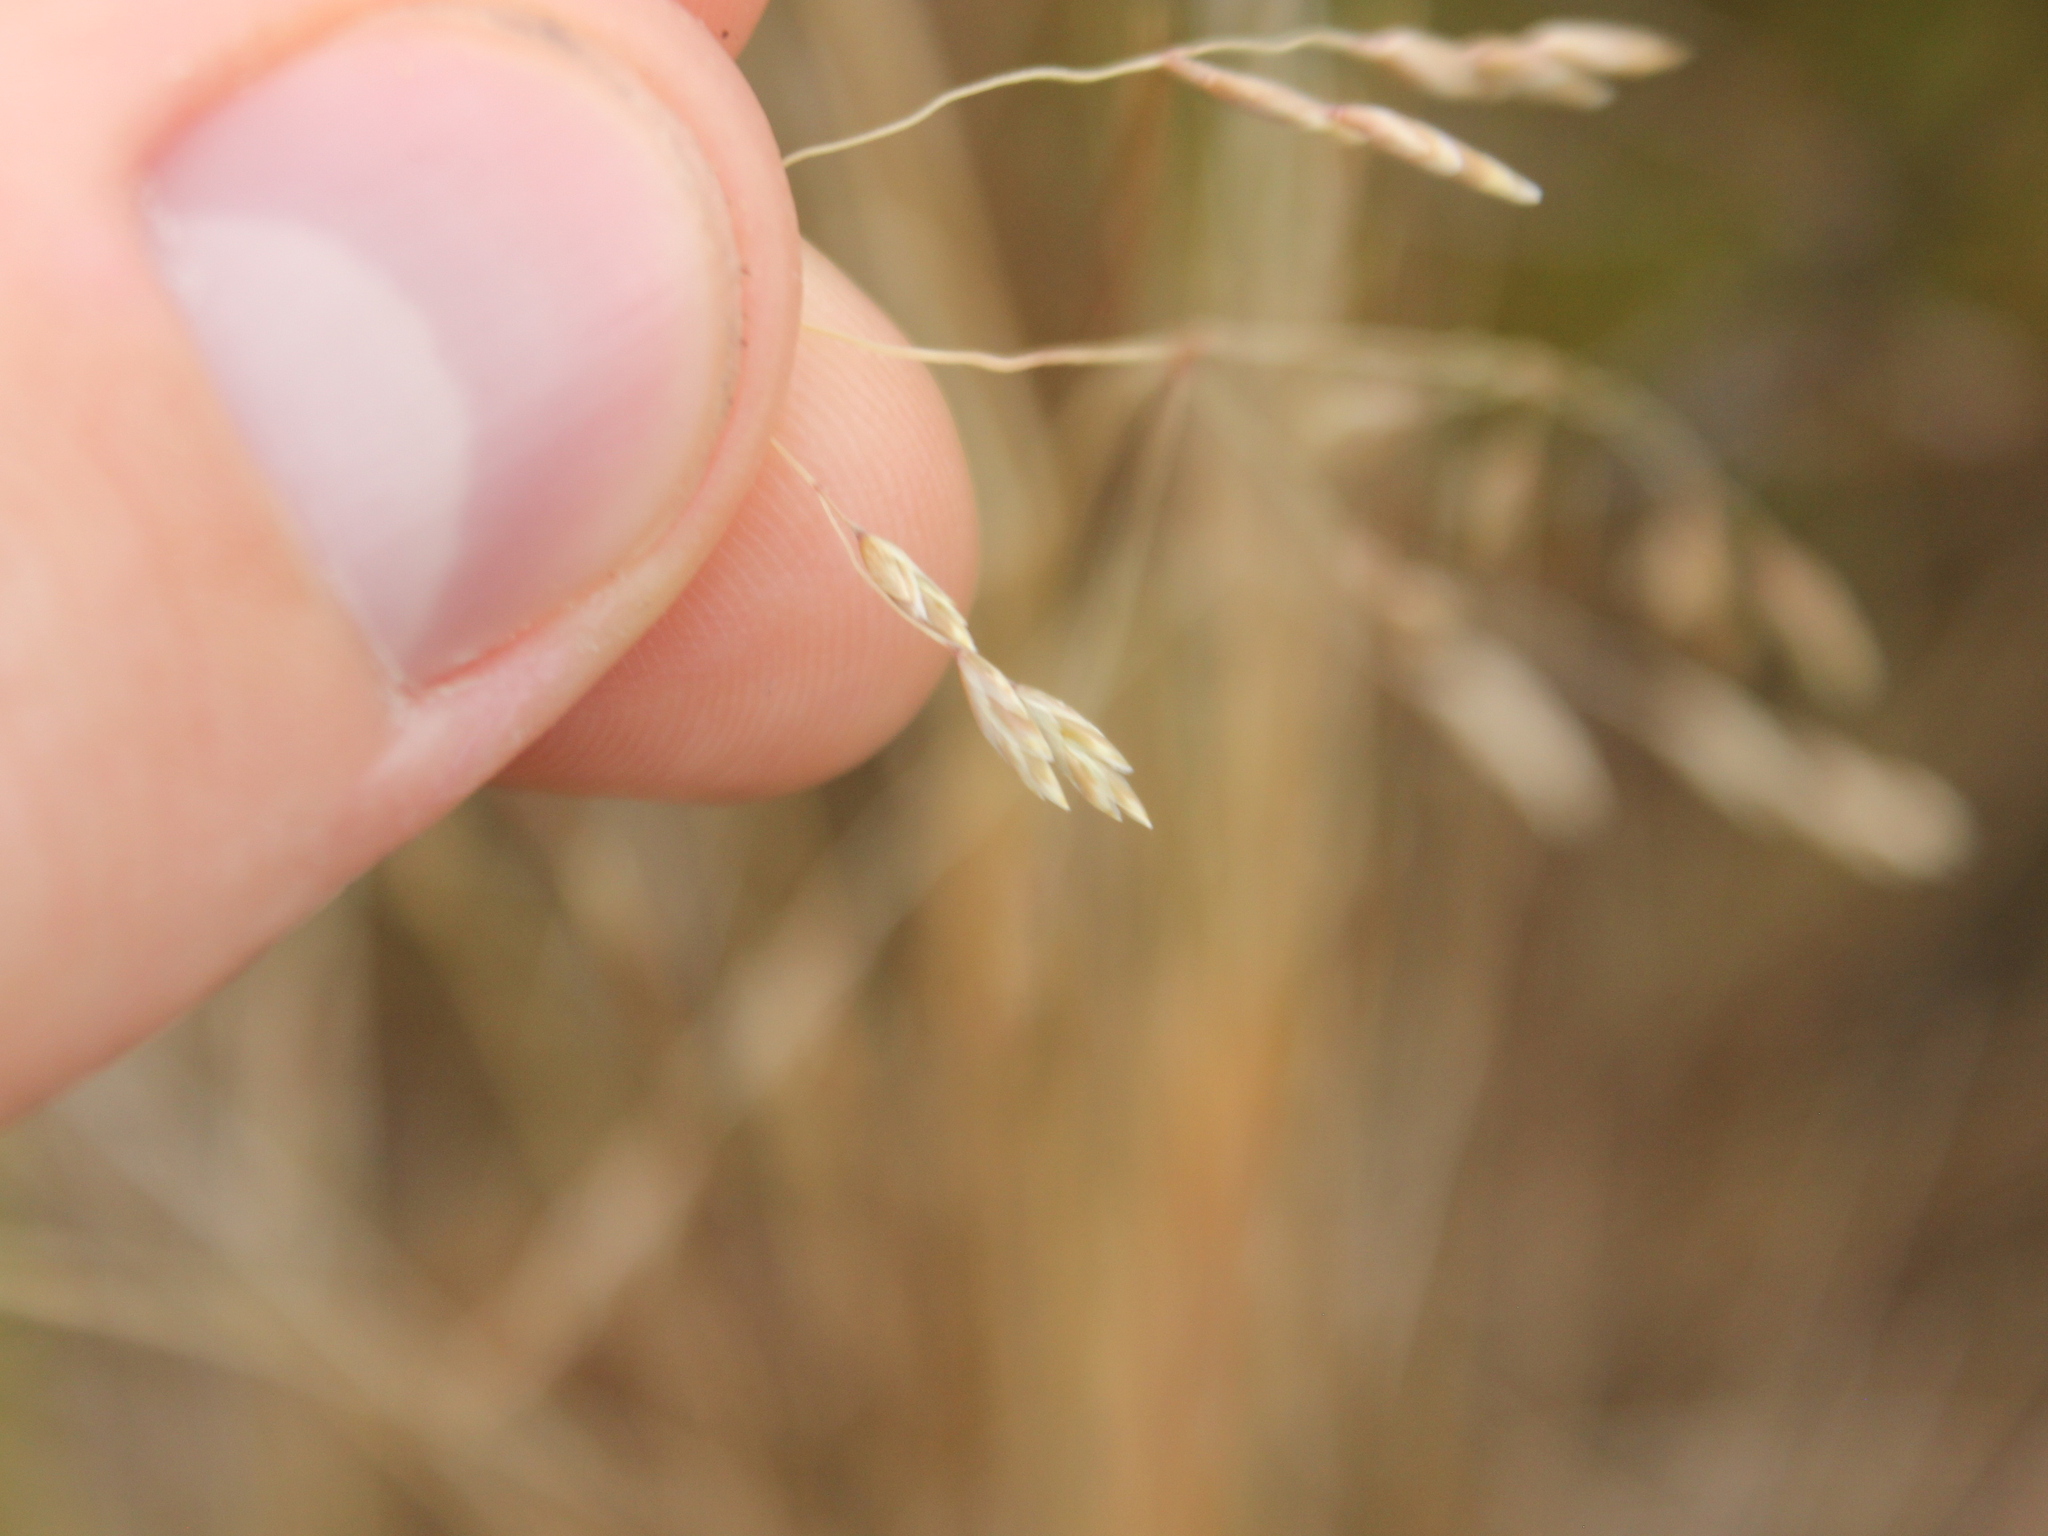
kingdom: Plantae
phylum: Tracheophyta
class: Liliopsida
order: Poales
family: Poaceae
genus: Poa
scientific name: Poa cita
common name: Silver tussock
